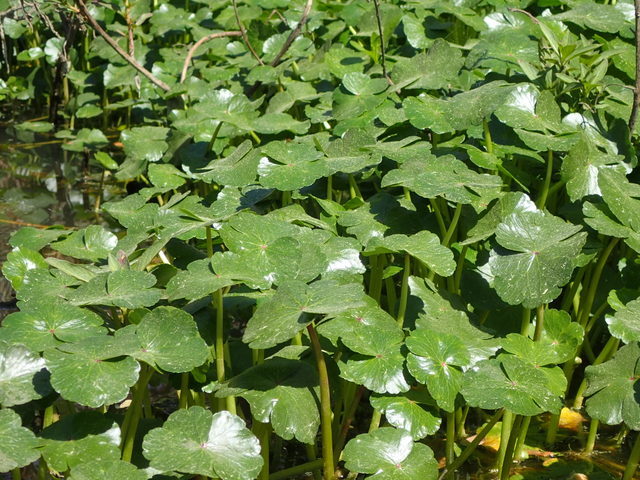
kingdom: Plantae
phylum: Tracheophyta
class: Magnoliopsida
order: Apiales
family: Araliaceae
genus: Hydrocotyle
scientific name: Hydrocotyle ranunculoides
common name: Floating pennywort
